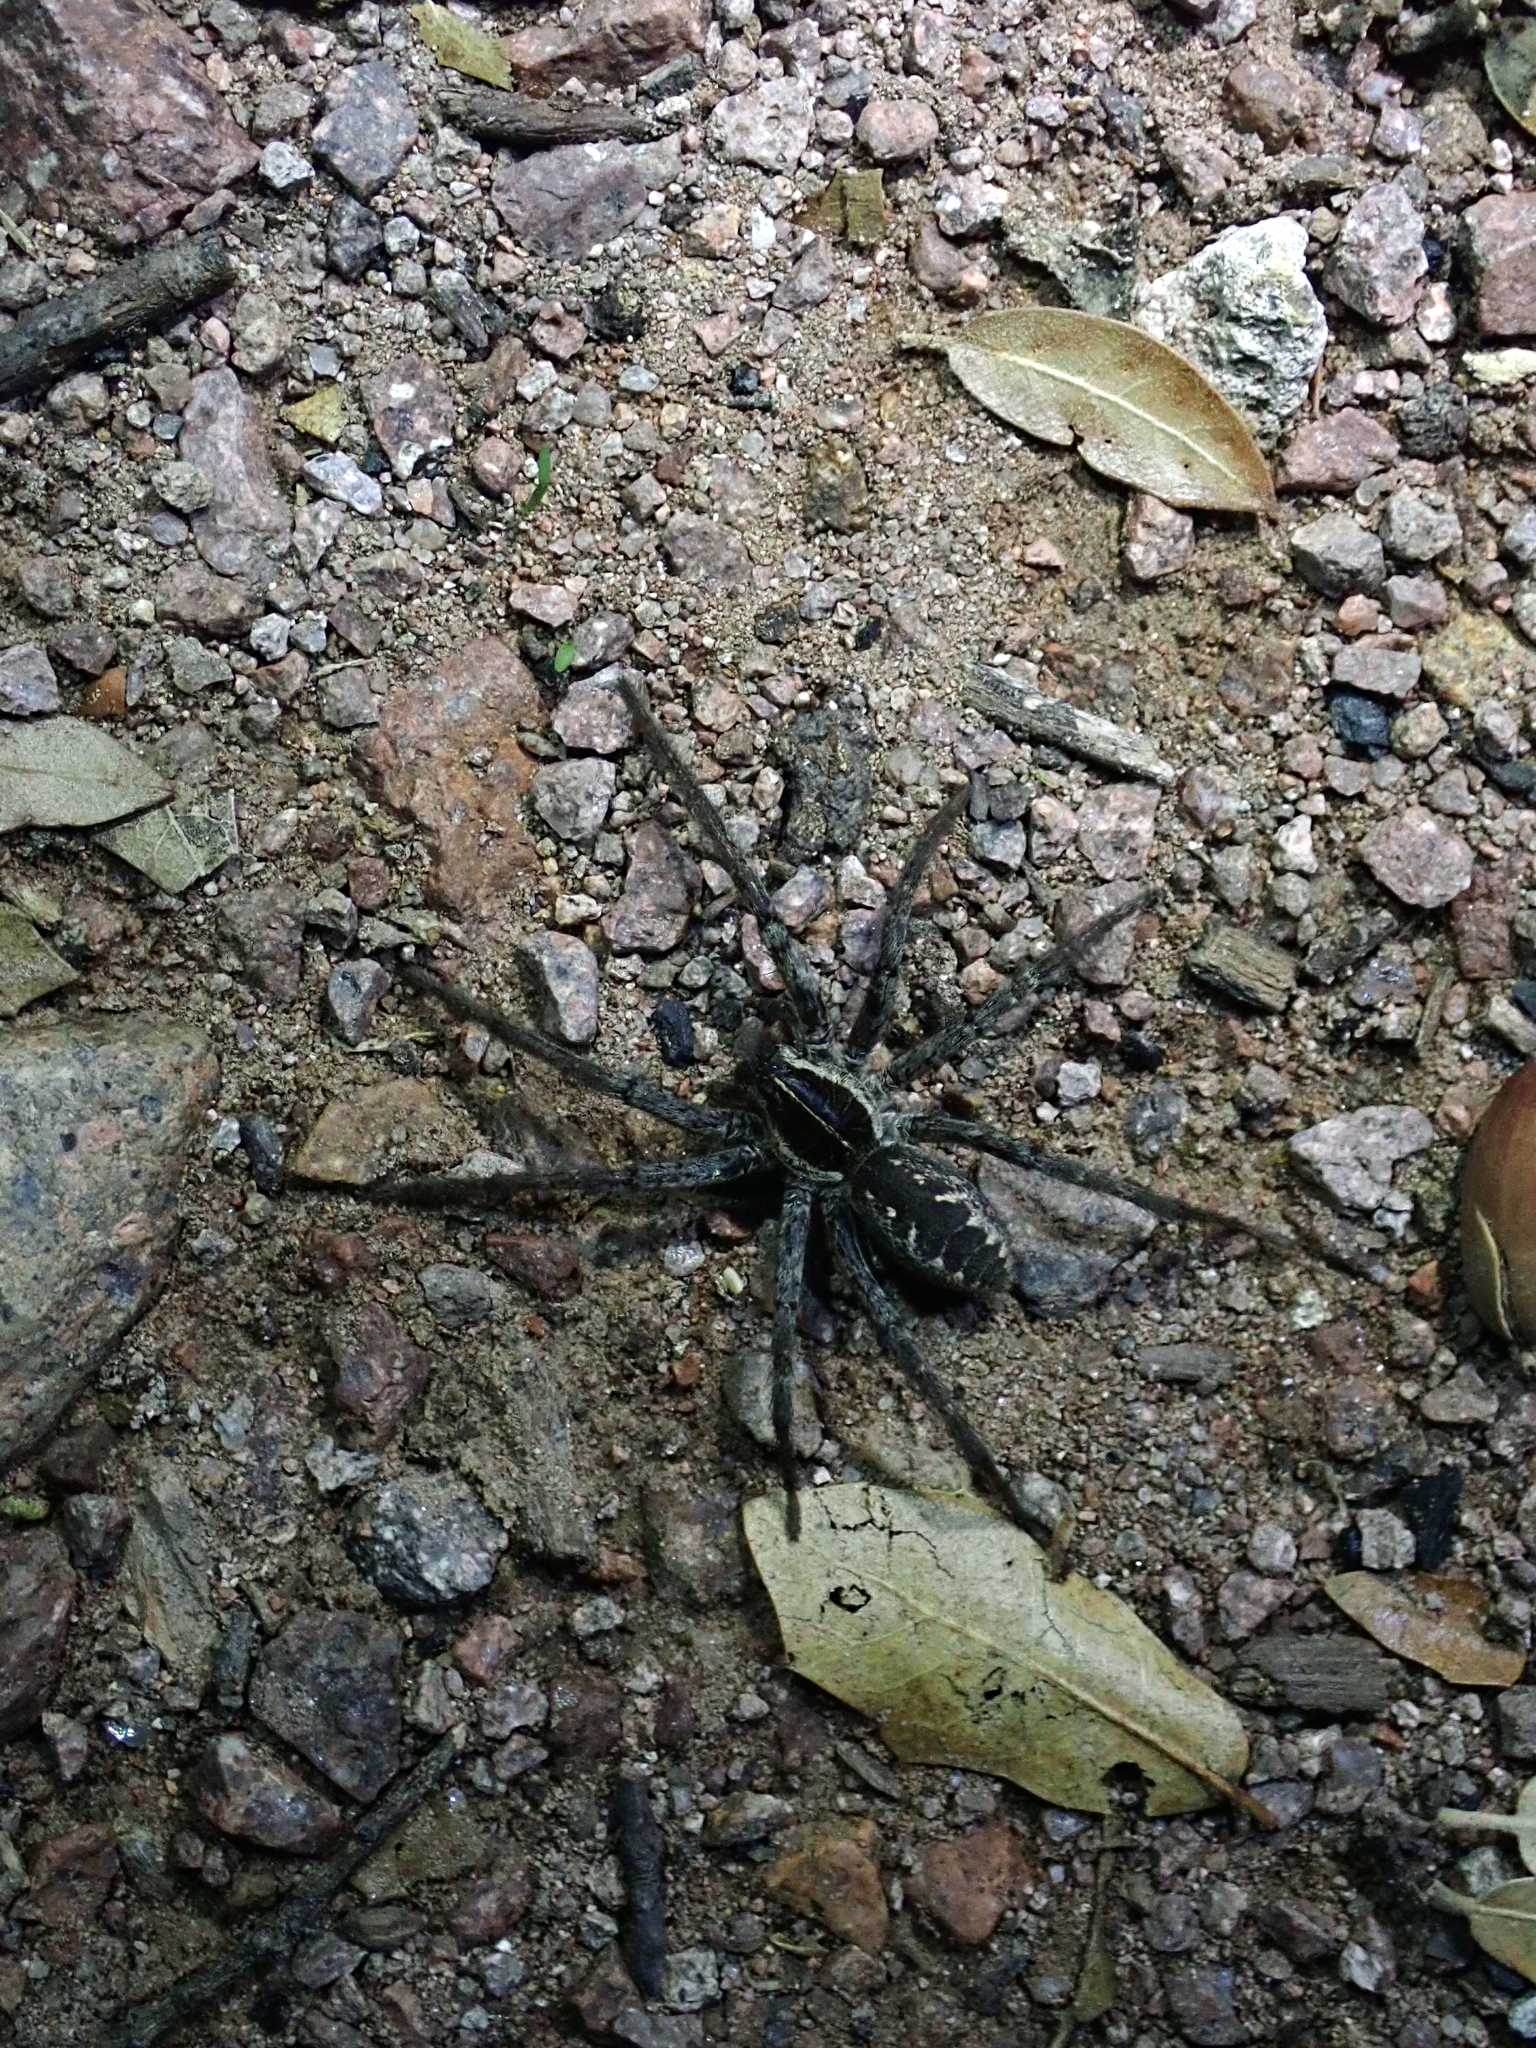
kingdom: Animalia
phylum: Arthropoda
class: Arachnida
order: Araneae
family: Lycosidae
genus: Sosippus
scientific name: Sosippus californicus
